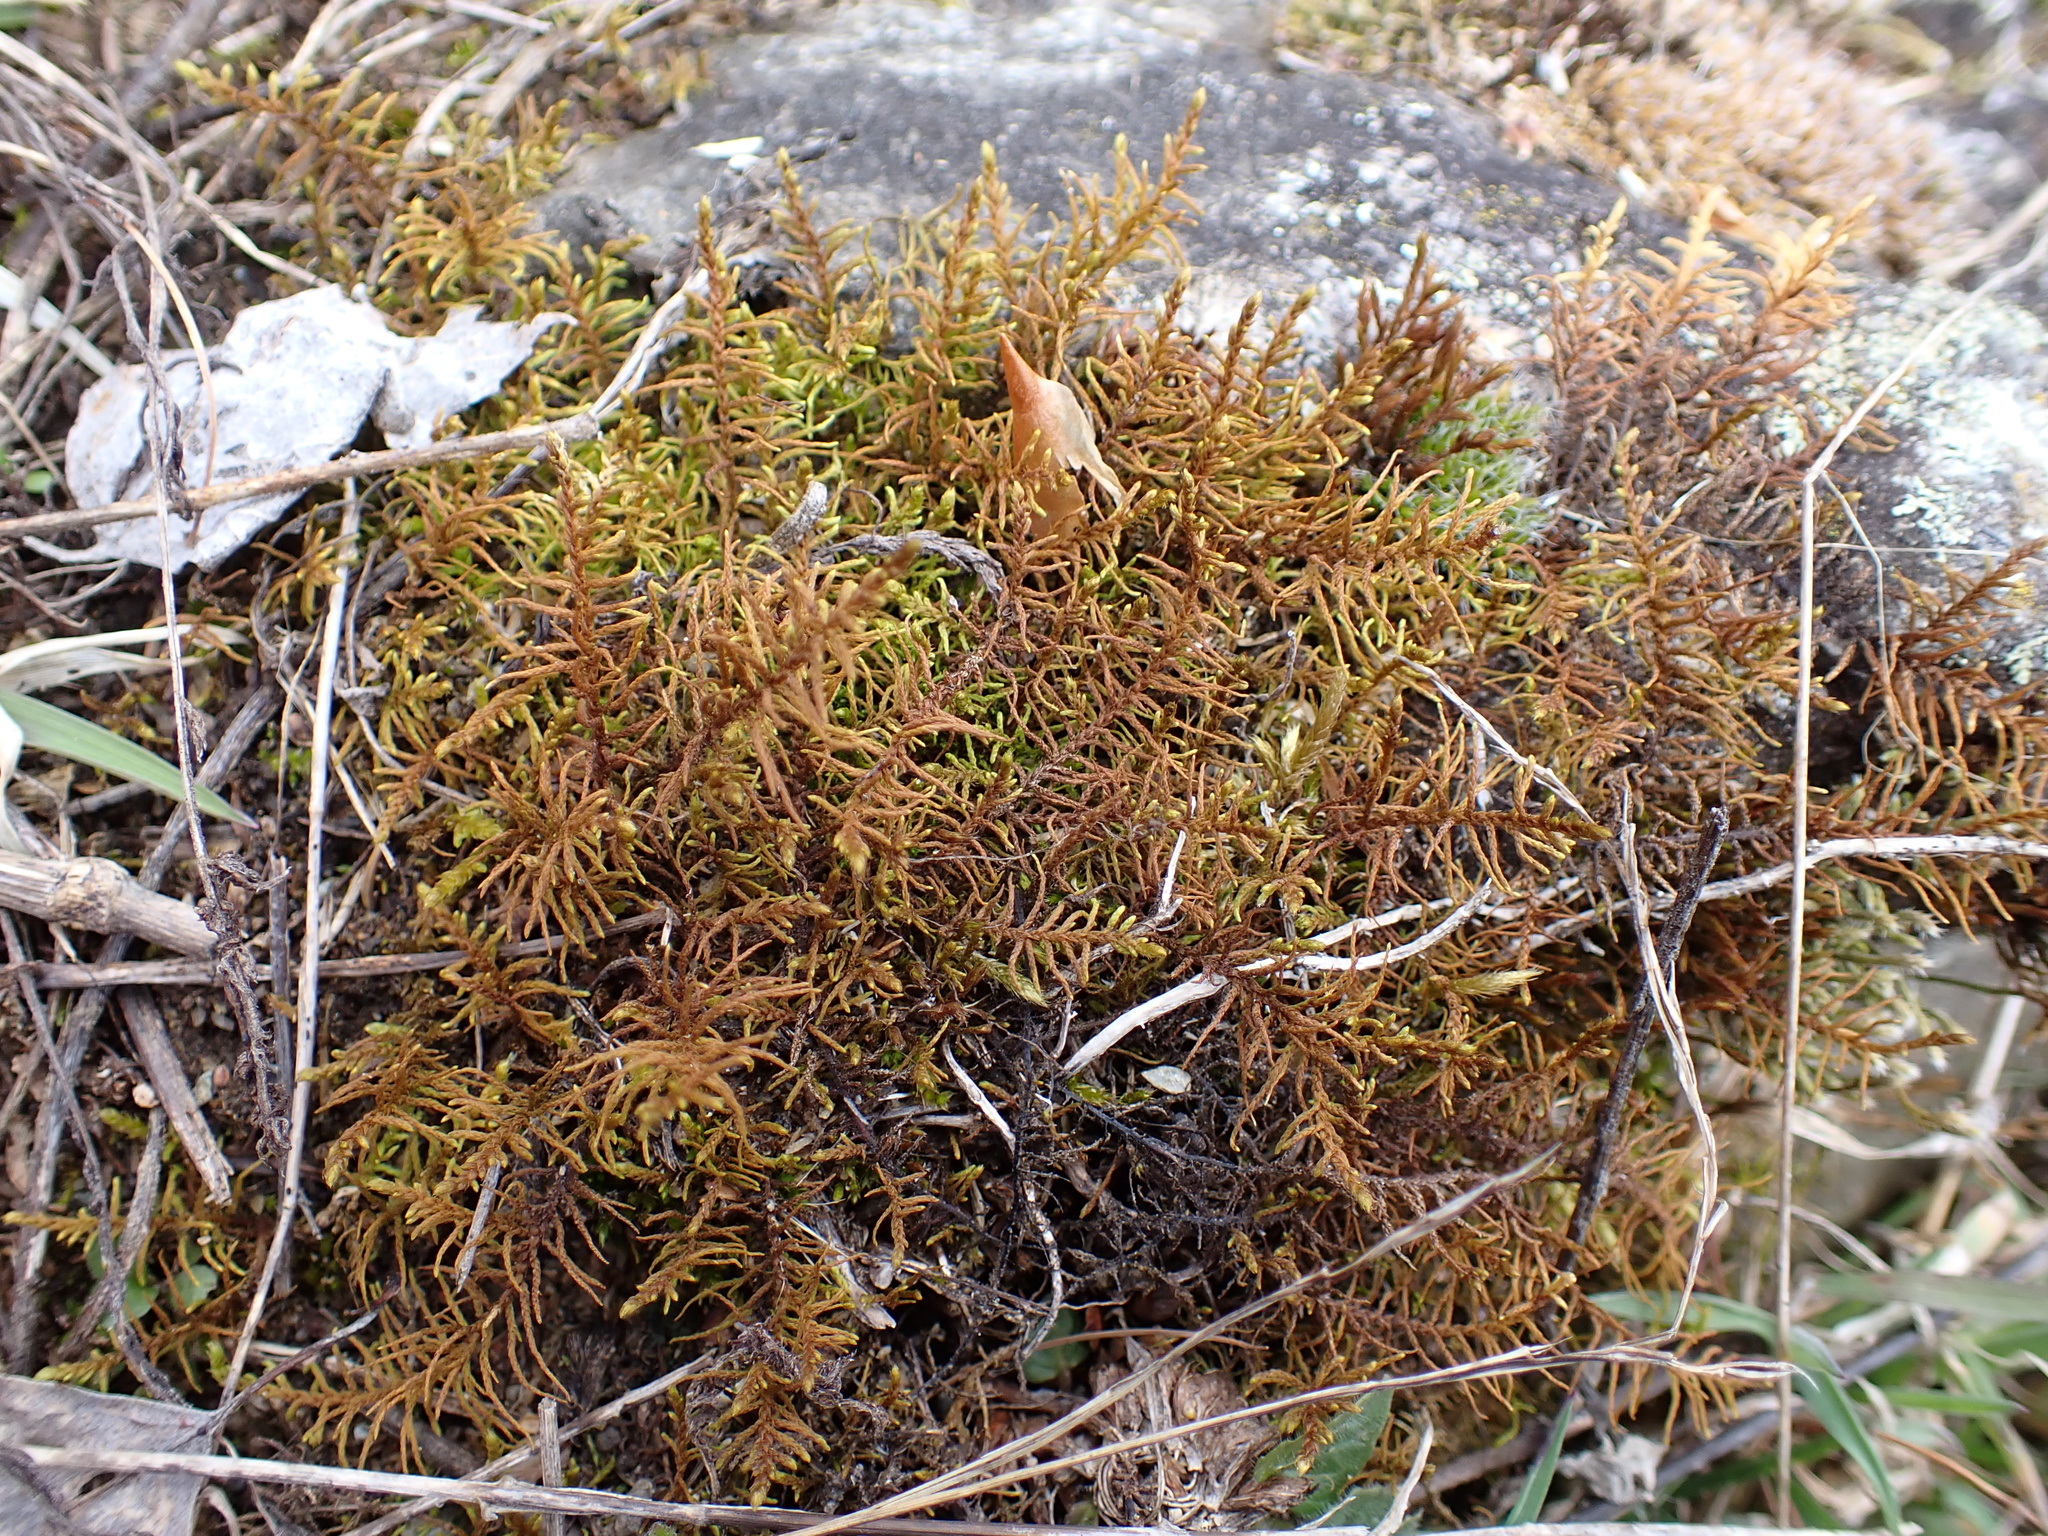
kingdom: Plantae
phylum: Bryophyta
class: Bryopsida
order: Hypnales
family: Thuidiaceae
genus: Abietinella
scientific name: Abietinella abietina
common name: Wiry fern moss
